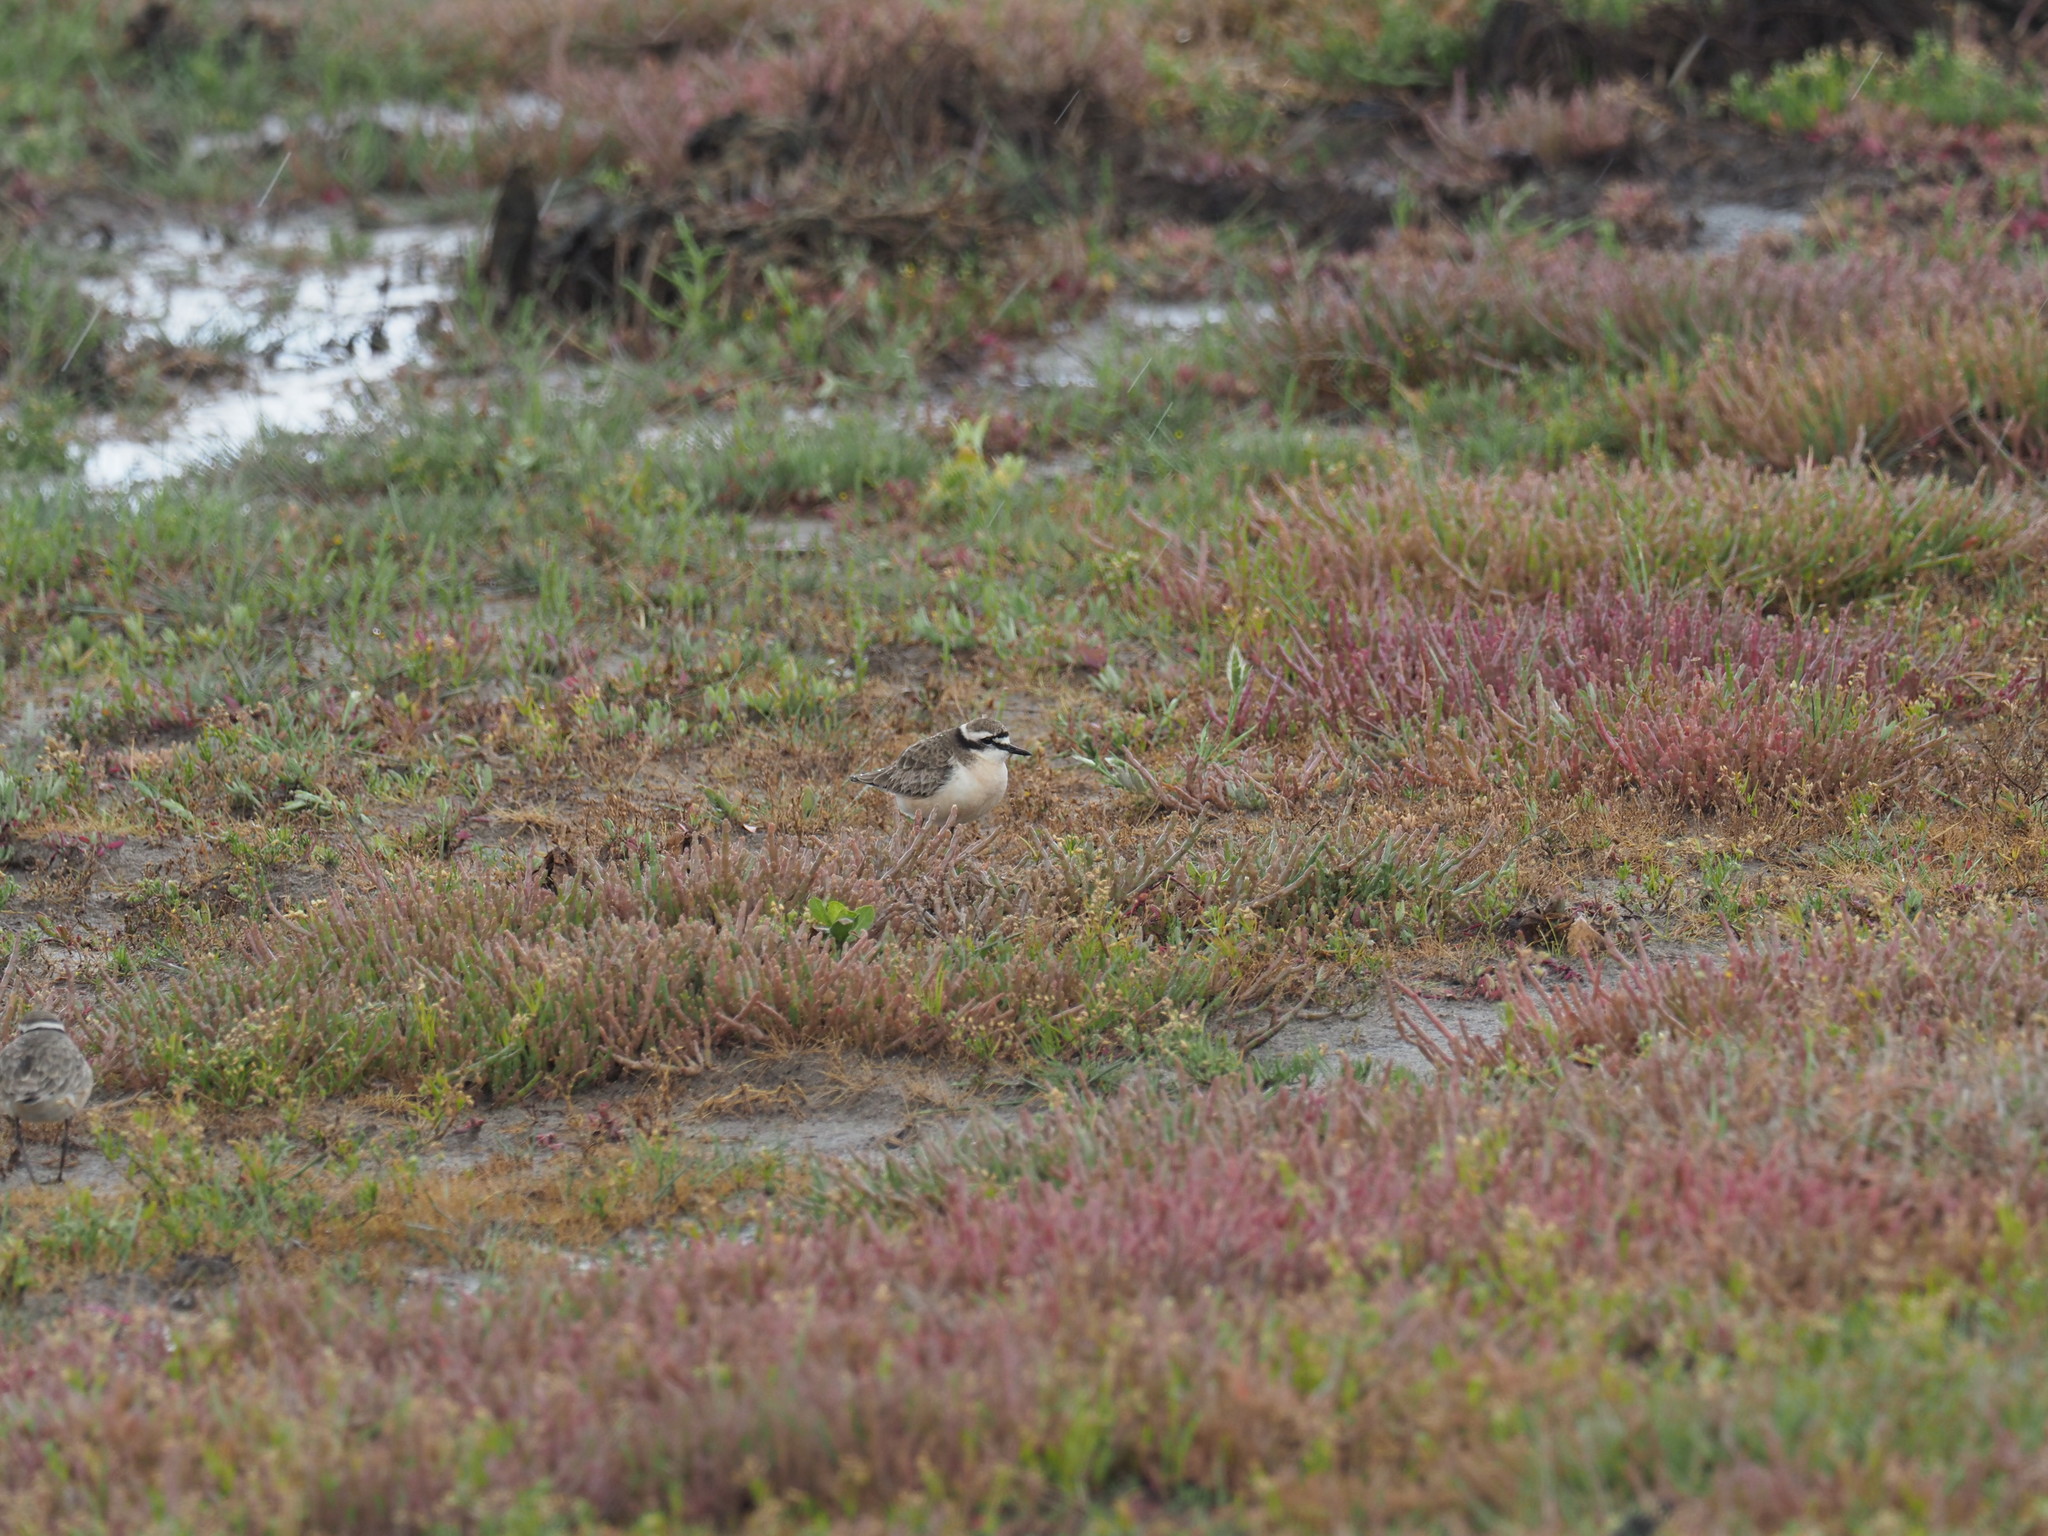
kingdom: Animalia
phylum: Chordata
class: Aves
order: Charadriiformes
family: Charadriidae
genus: Anarhynchus
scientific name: Anarhynchus
